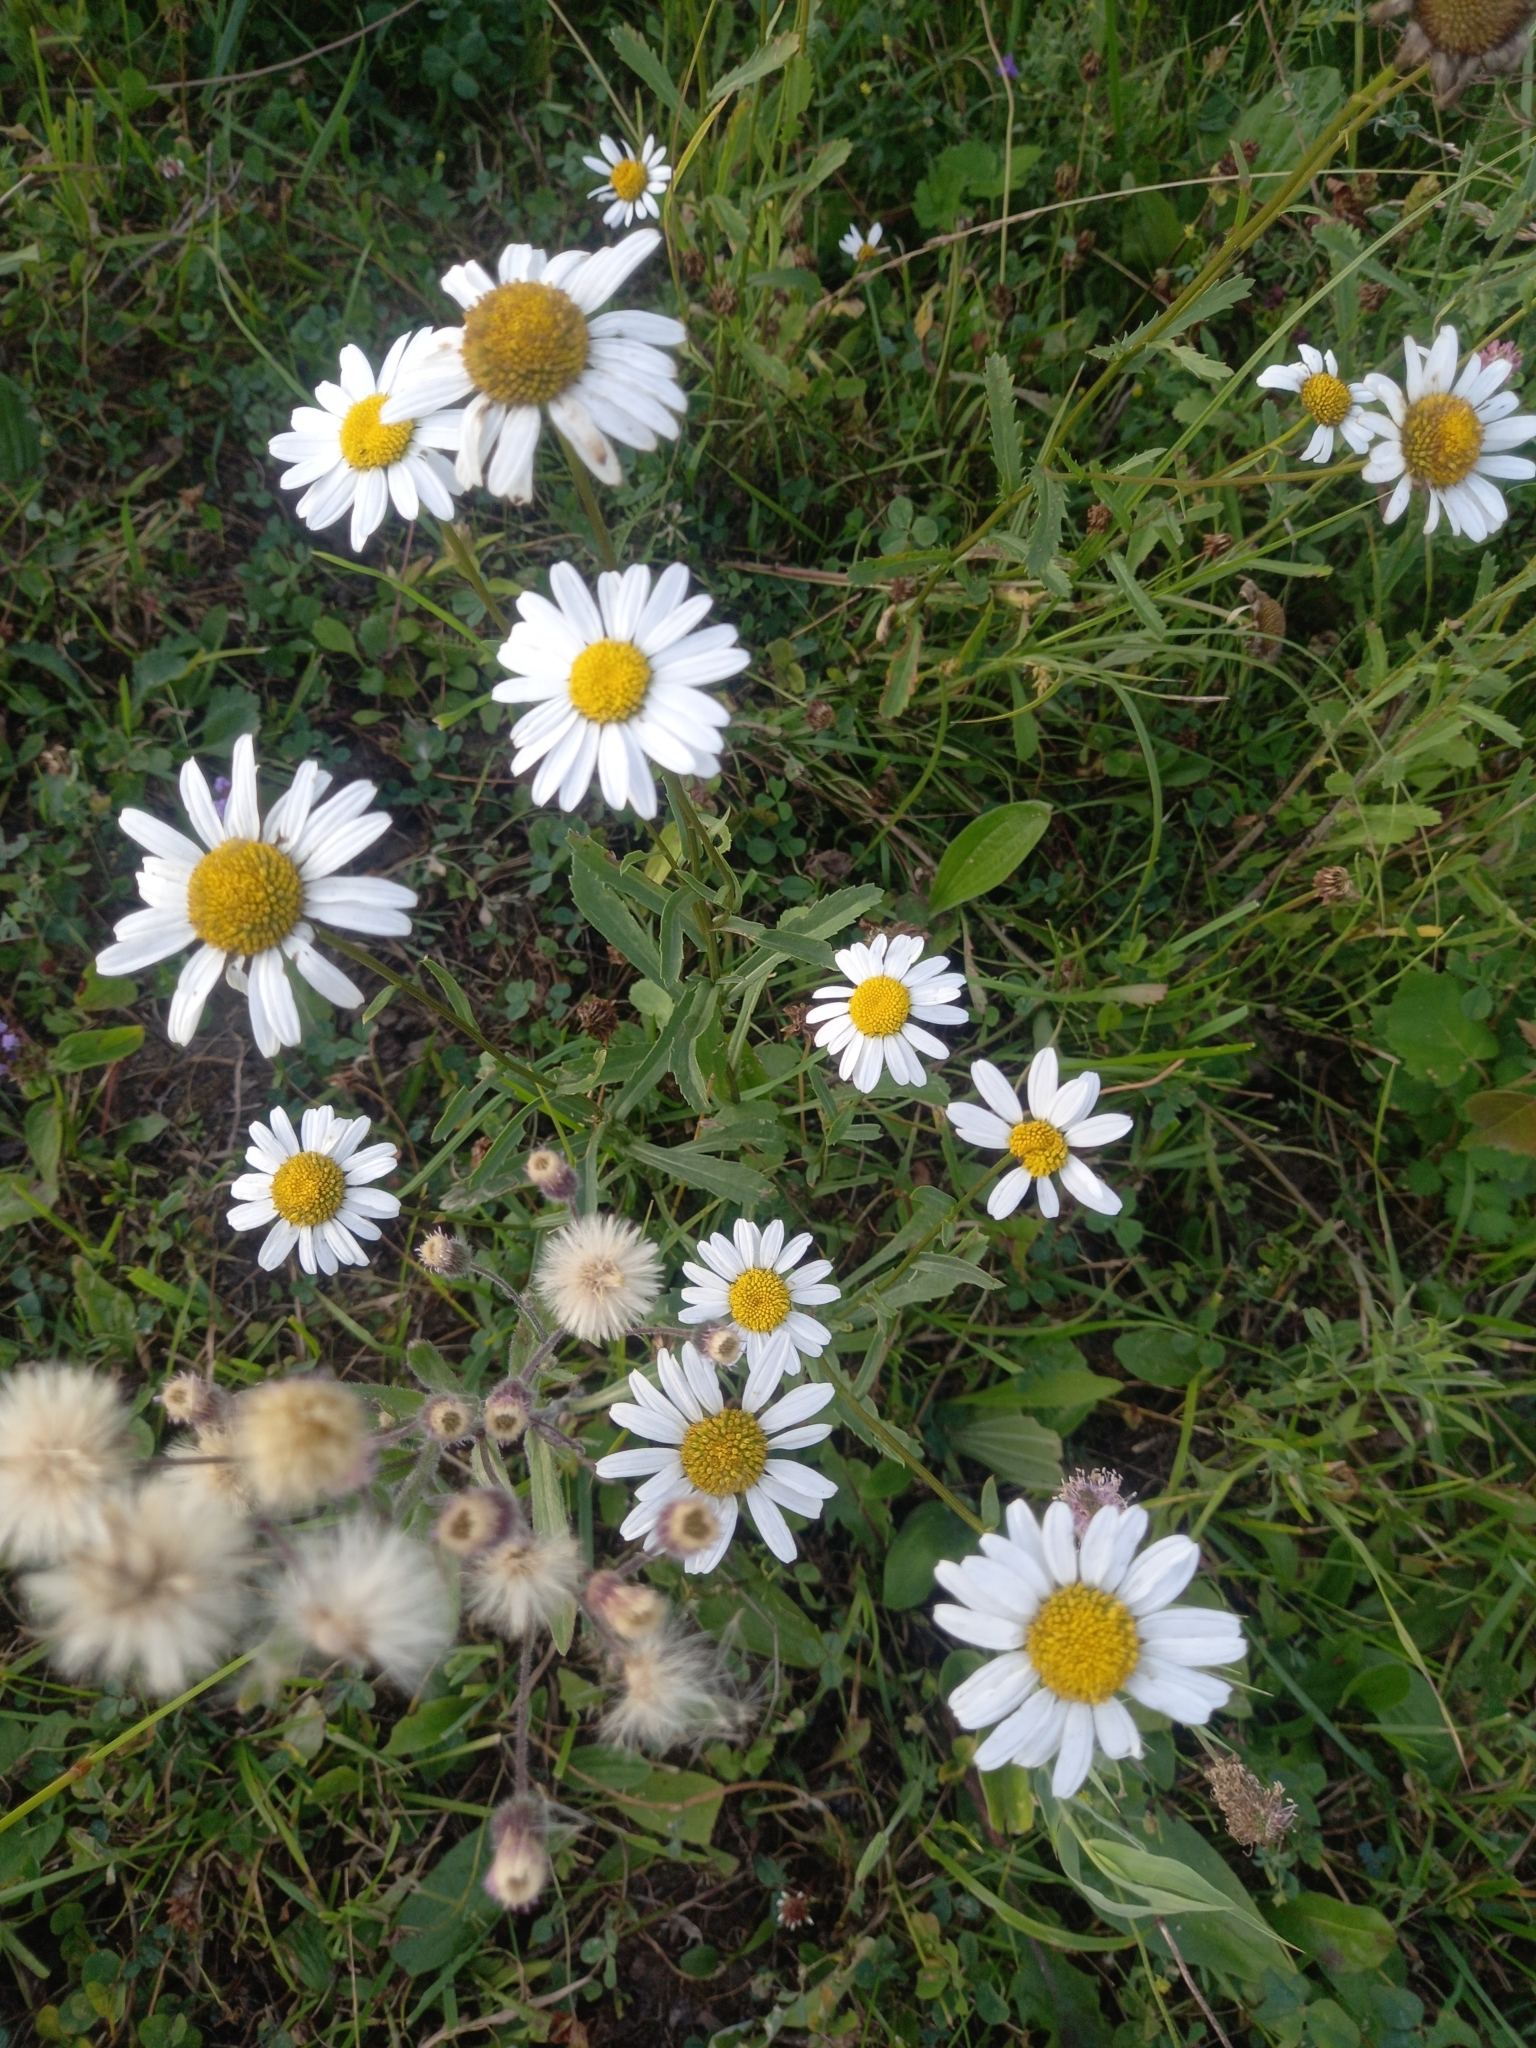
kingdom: Plantae
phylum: Tracheophyta
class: Magnoliopsida
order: Asterales
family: Asteraceae
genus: Leucanthemum
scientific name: Leucanthemum vulgare
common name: Oxeye daisy
